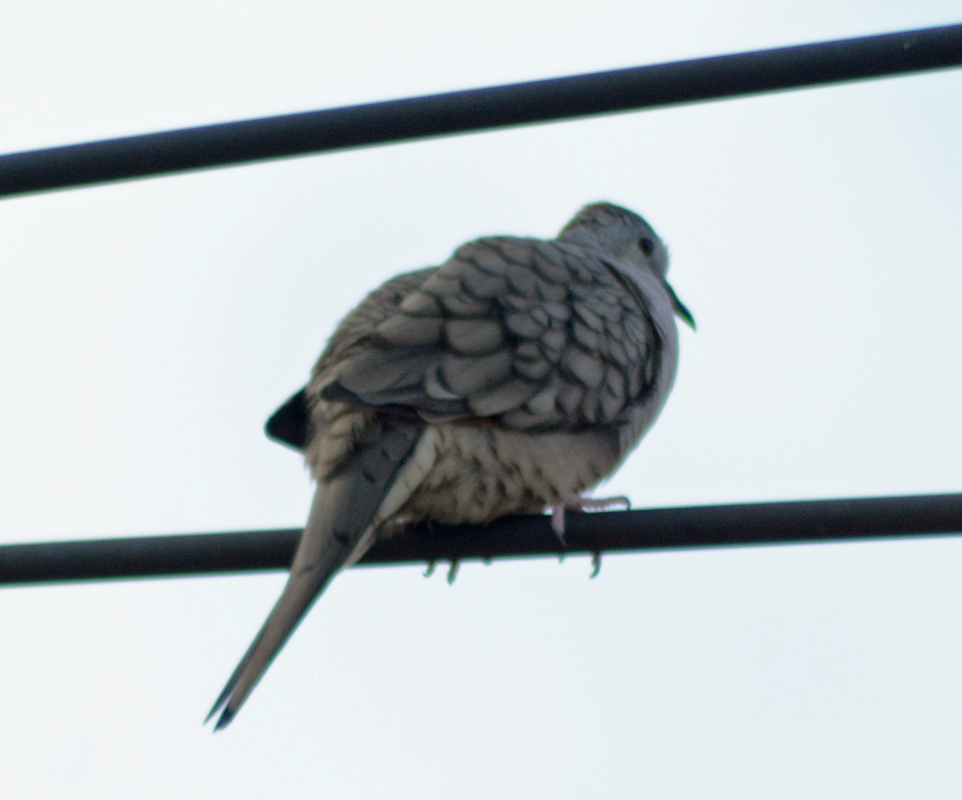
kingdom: Animalia
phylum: Chordata
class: Aves
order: Columbiformes
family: Columbidae
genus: Columbina
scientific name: Columbina inca
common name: Inca dove
